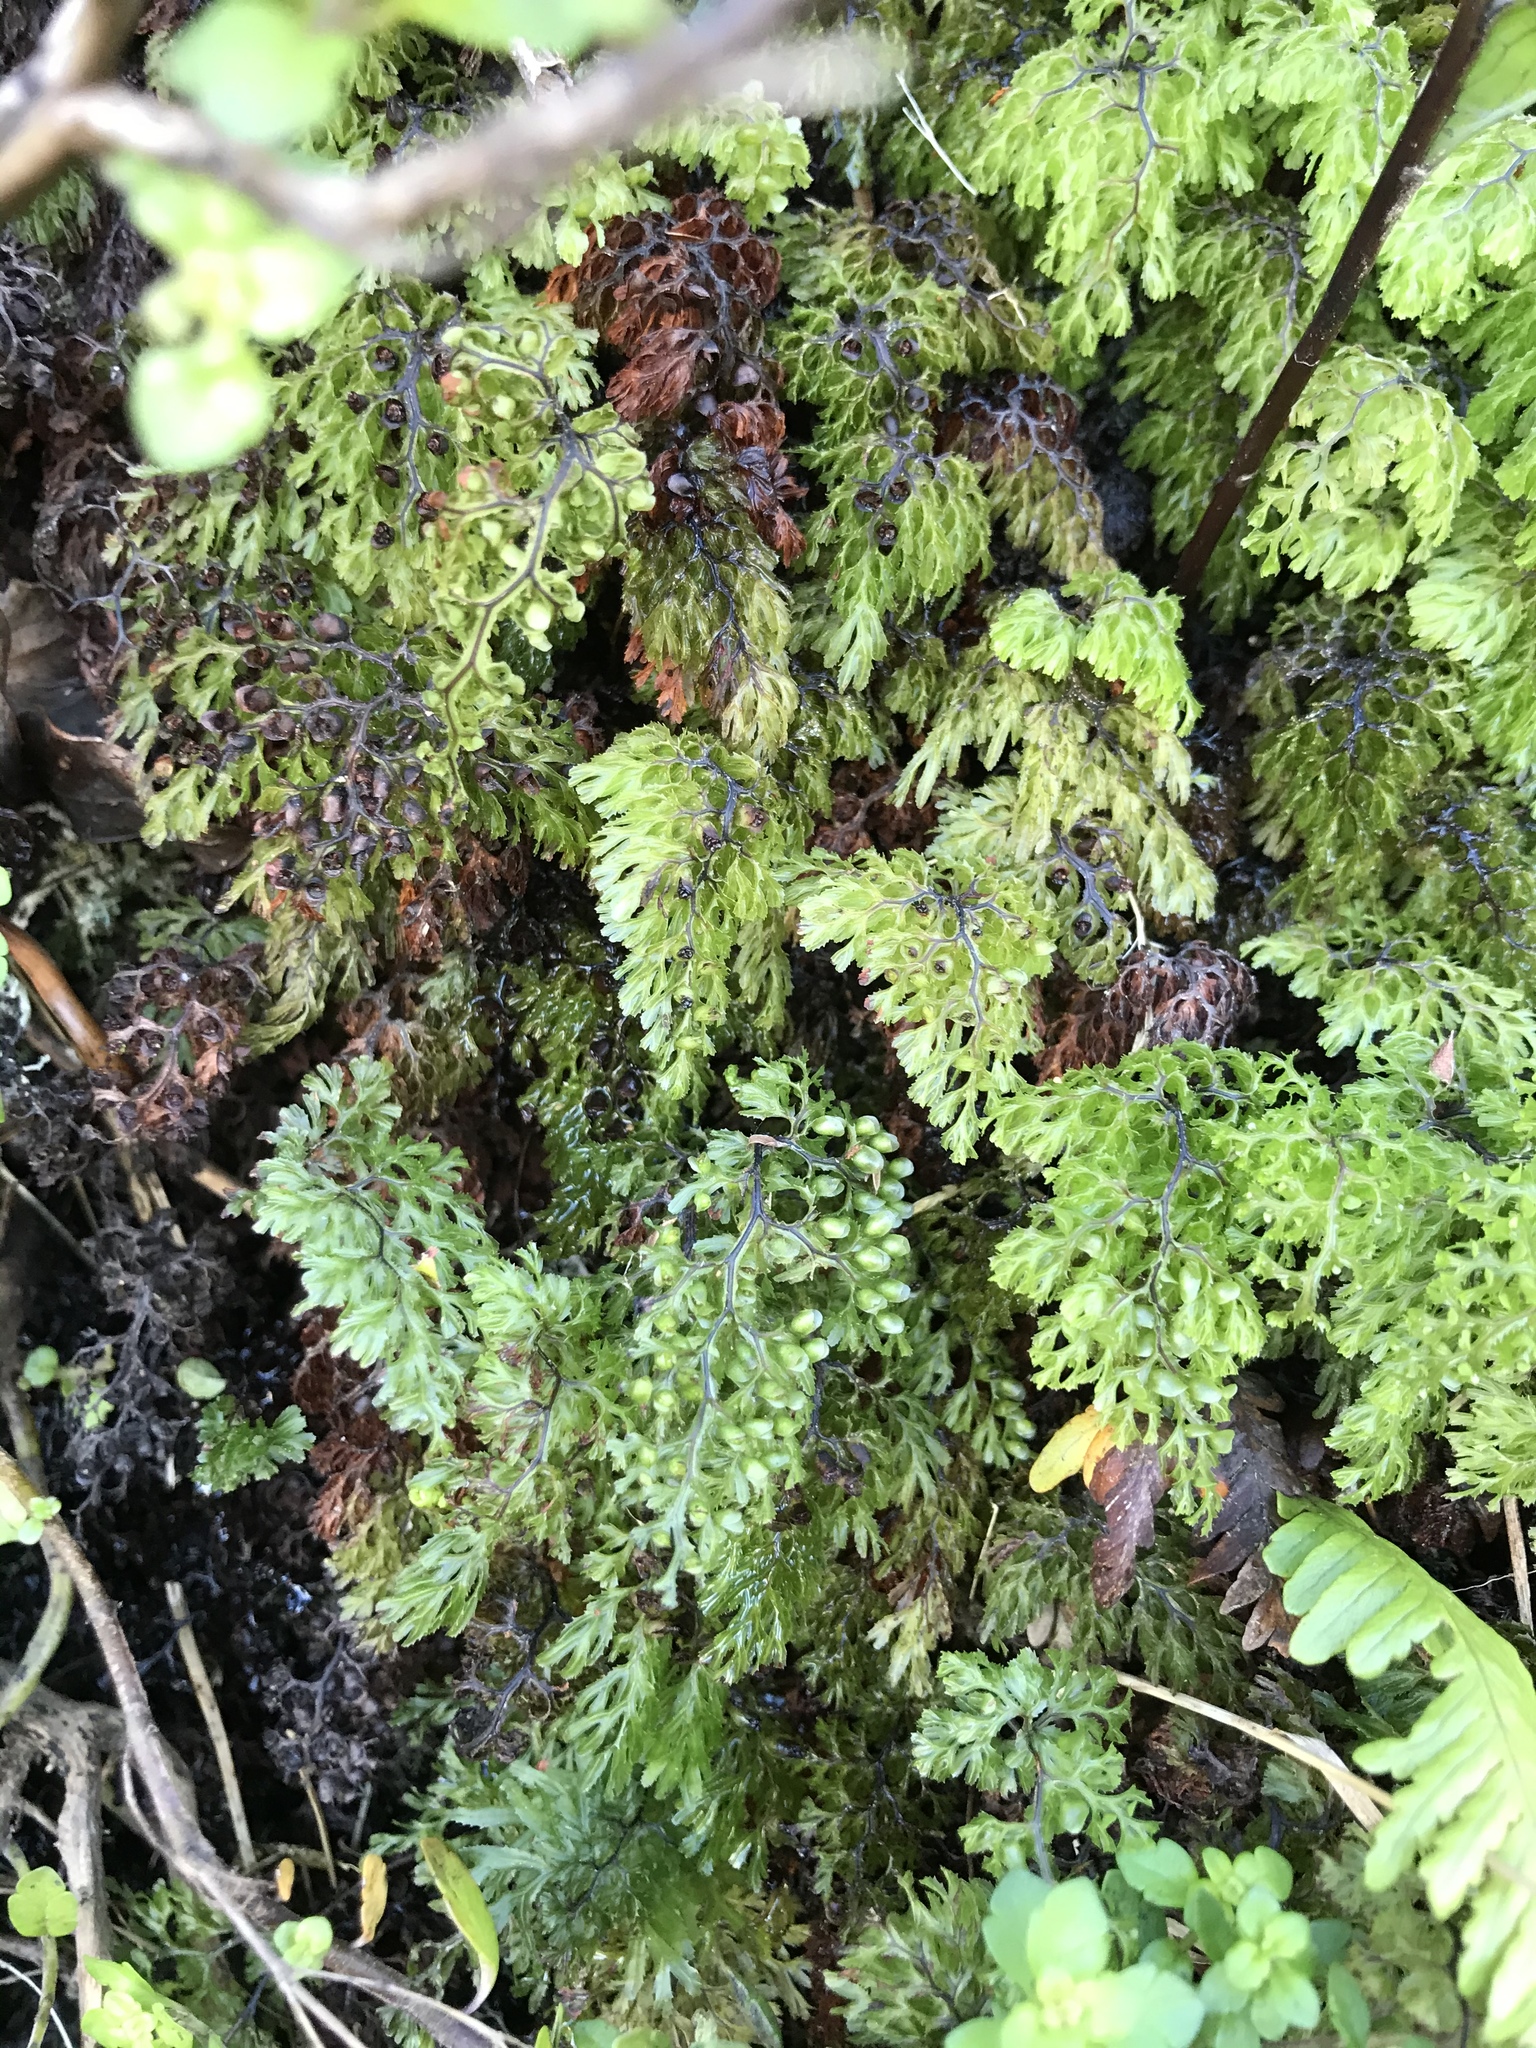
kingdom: Plantae
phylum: Tracheophyta
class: Polypodiopsida
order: Hymenophyllales
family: Hymenophyllaceae
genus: Hymenophyllum
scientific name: Hymenophyllum multifidum
